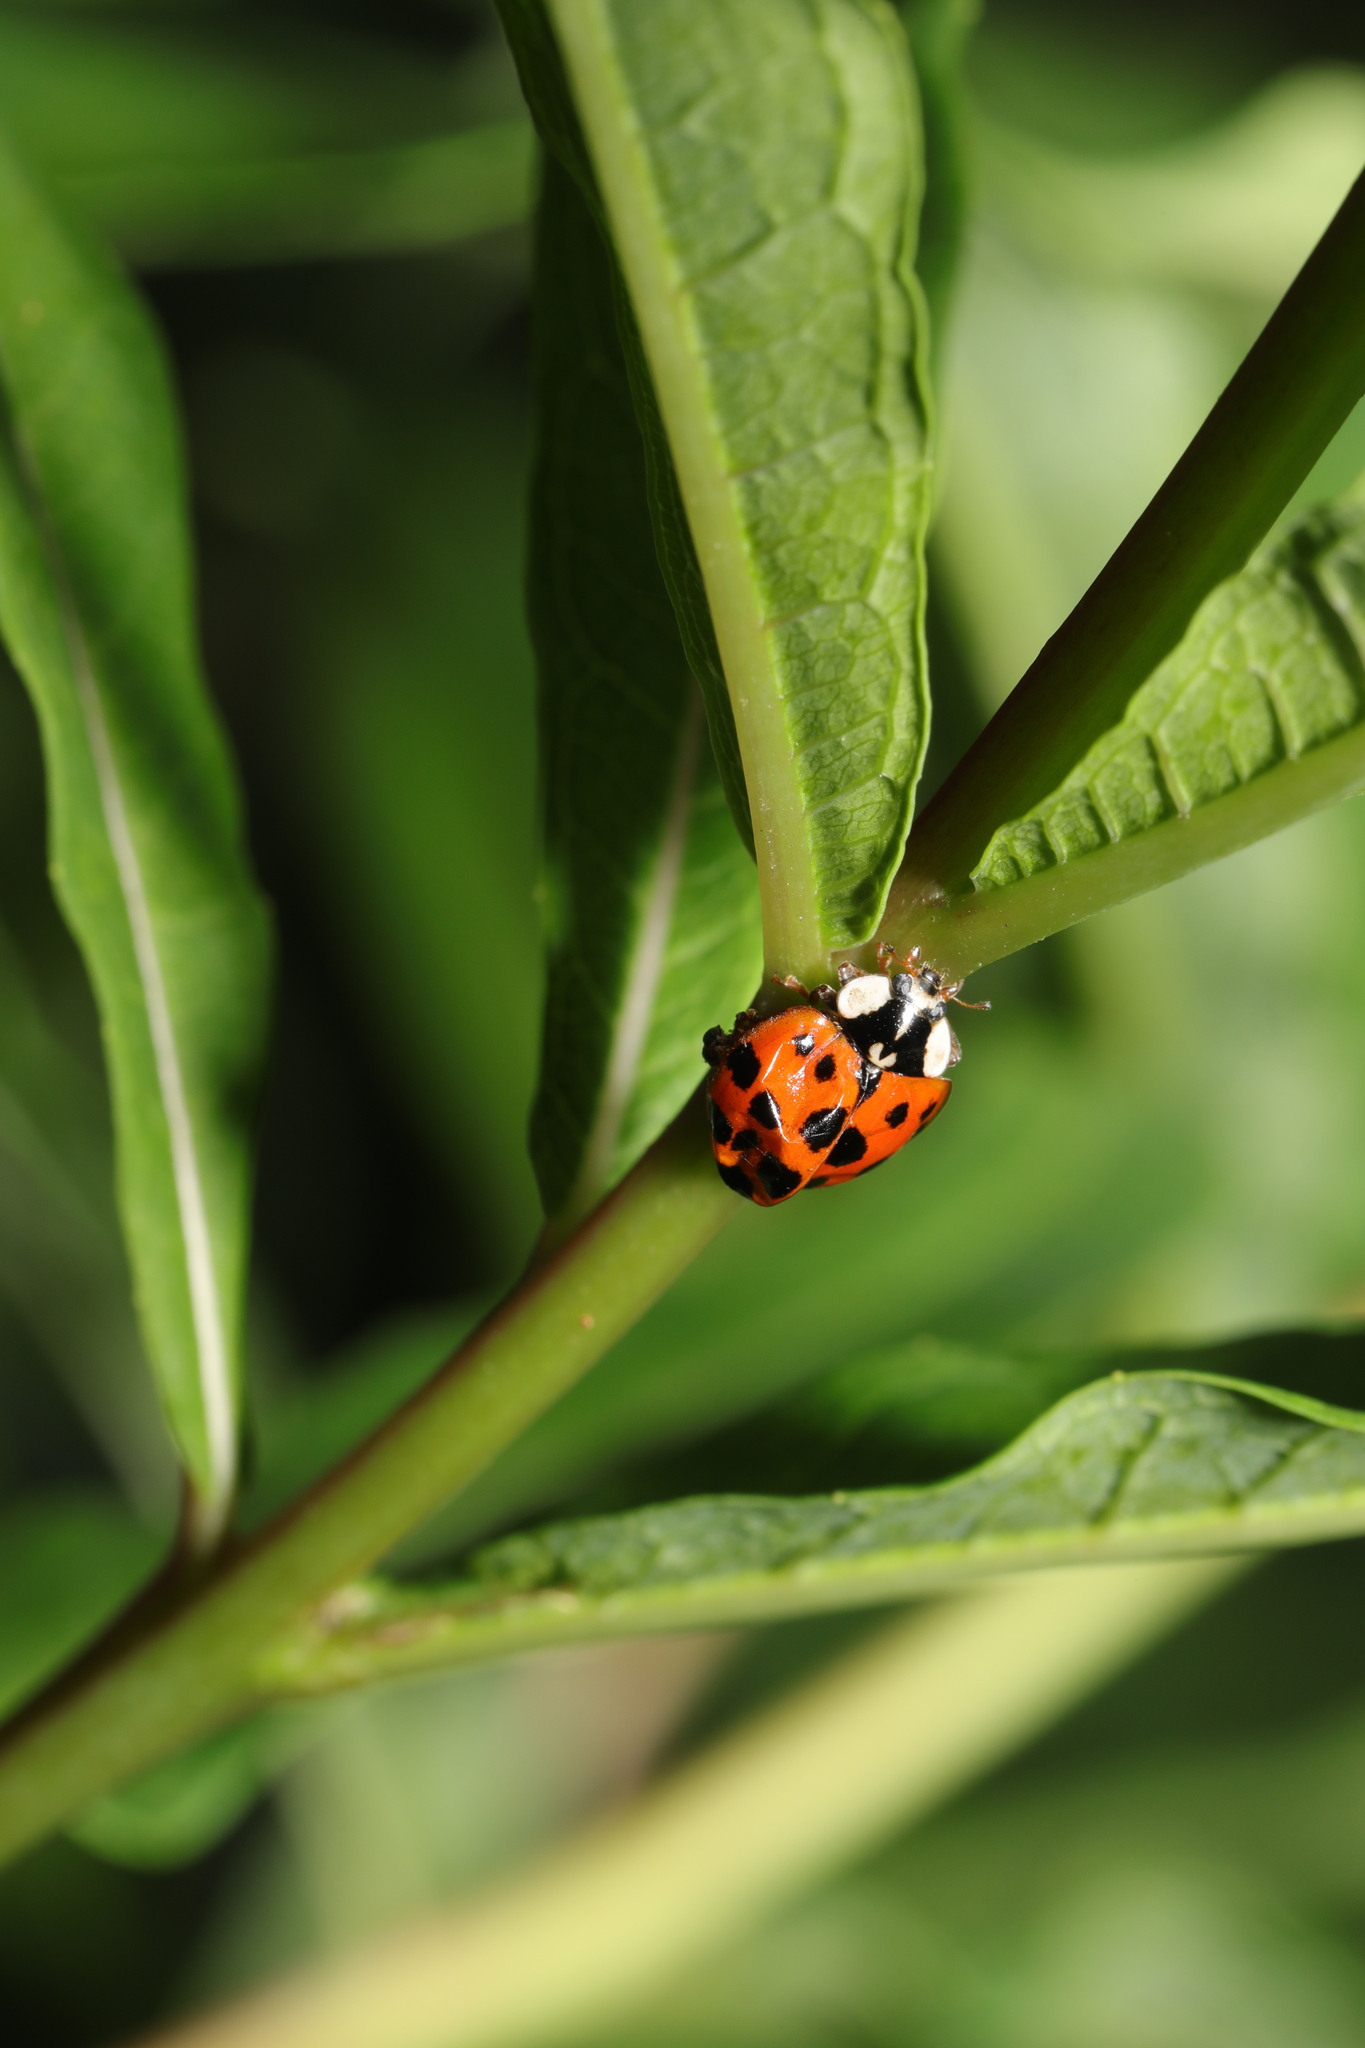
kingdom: Animalia
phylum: Arthropoda
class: Insecta
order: Coleoptera
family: Coccinellidae
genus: Harmonia
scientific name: Harmonia axyridis
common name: Harlequin ladybird
